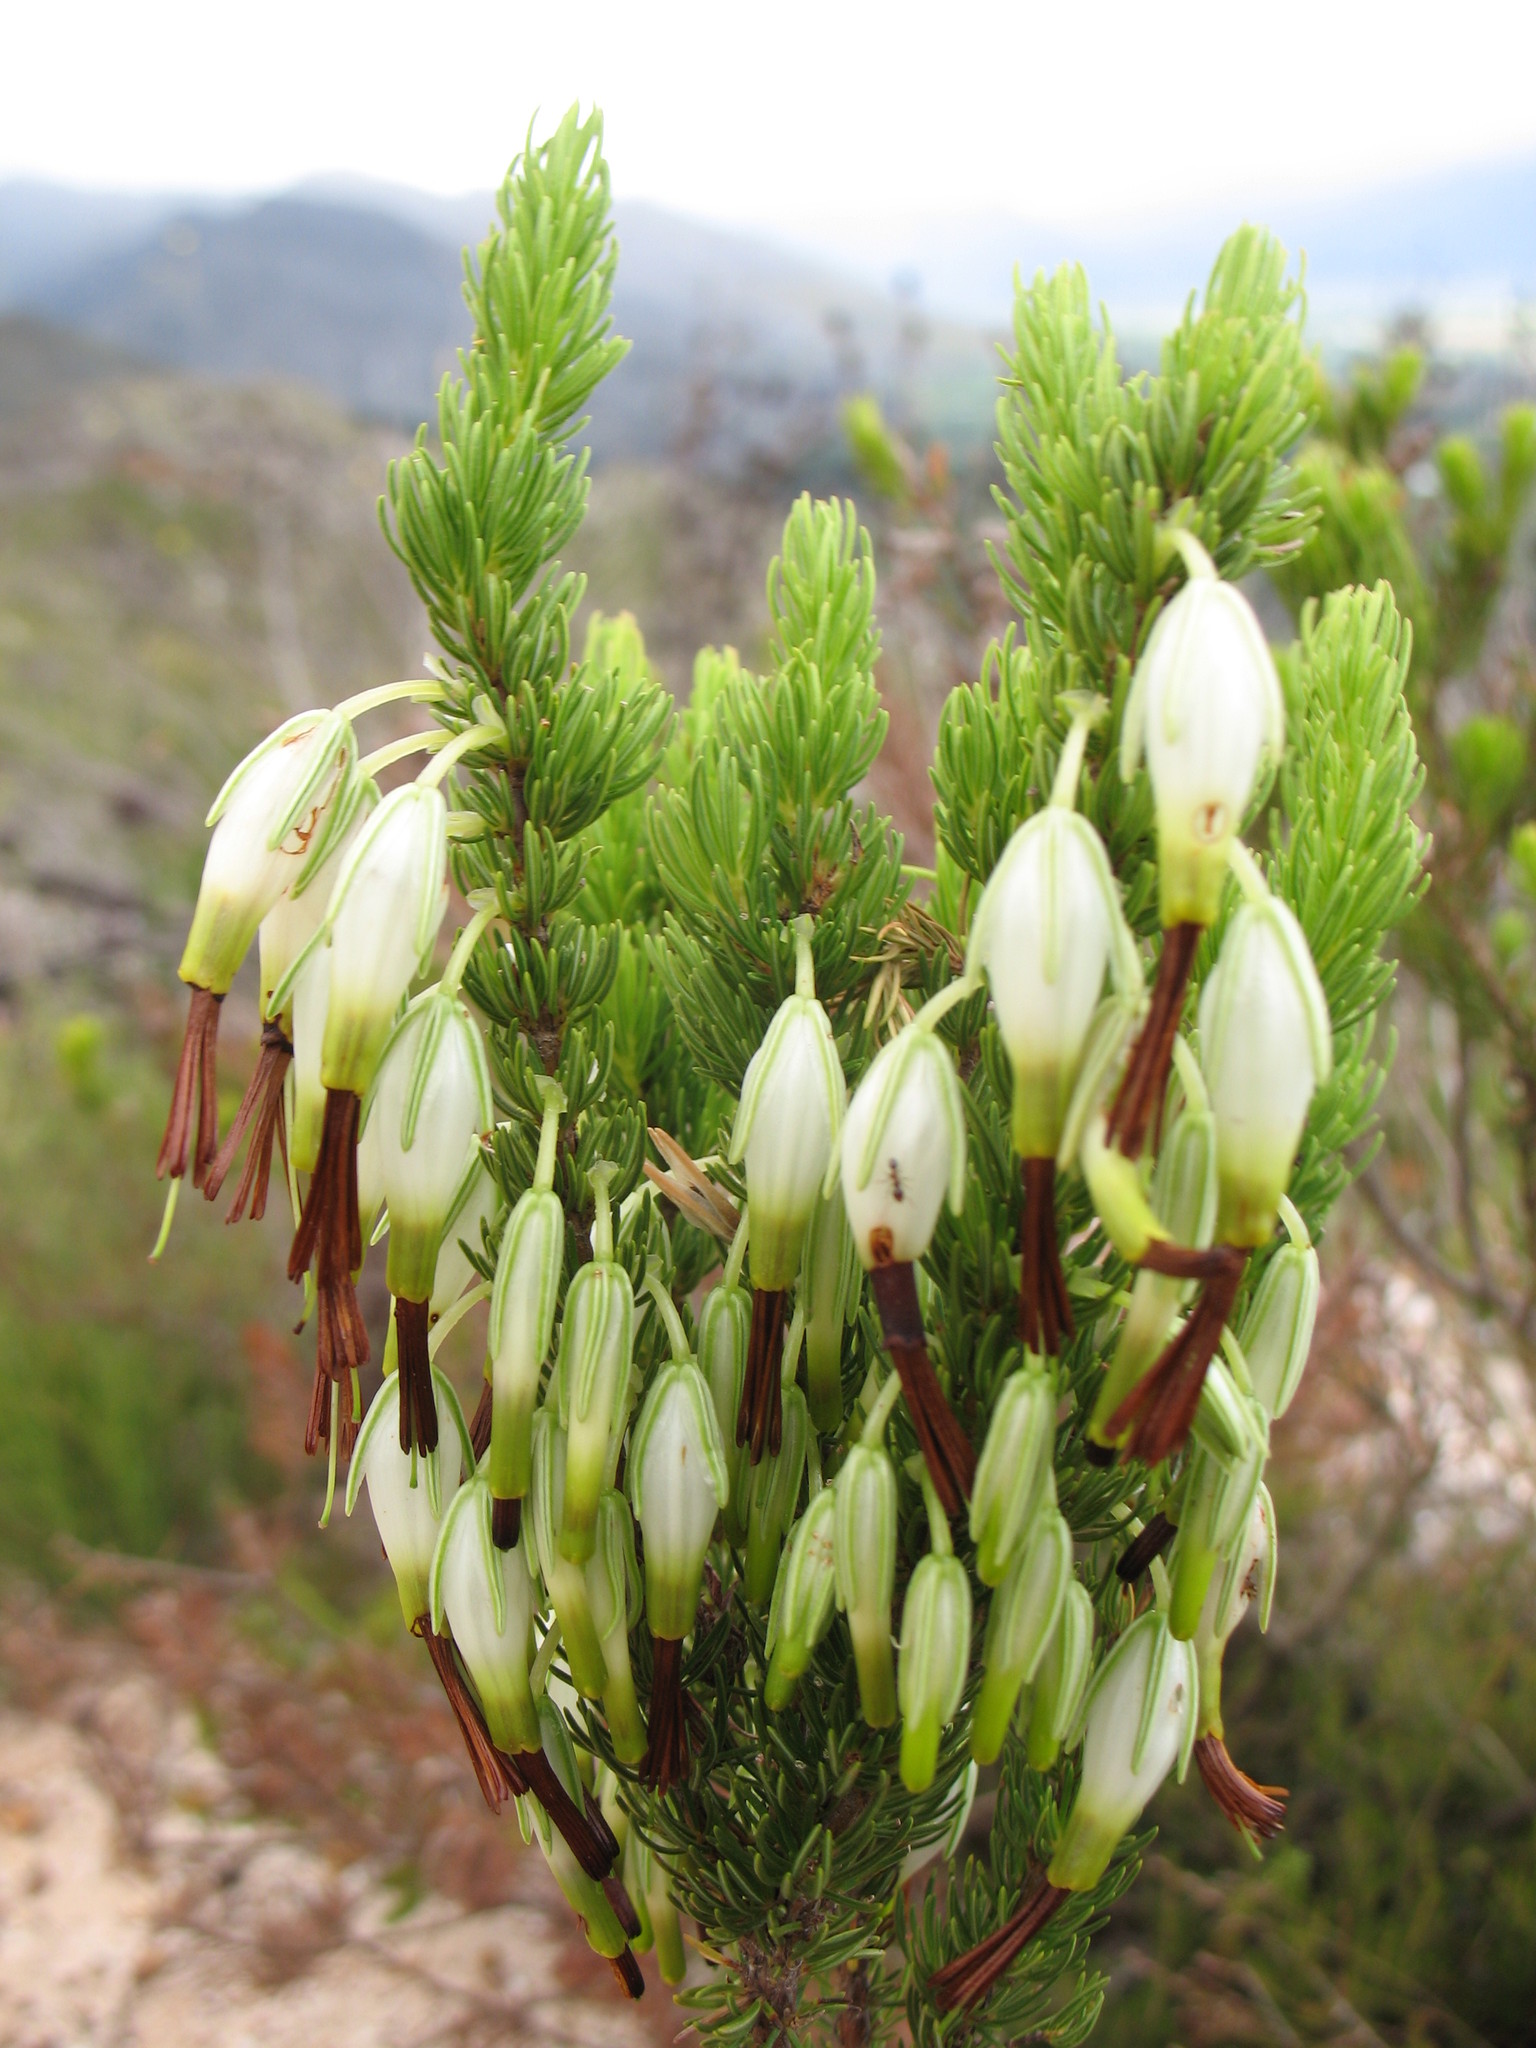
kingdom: Plantae
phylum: Tracheophyta
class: Magnoliopsida
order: Ericales
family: Ericaceae
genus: Erica
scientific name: Erica plukenetii
